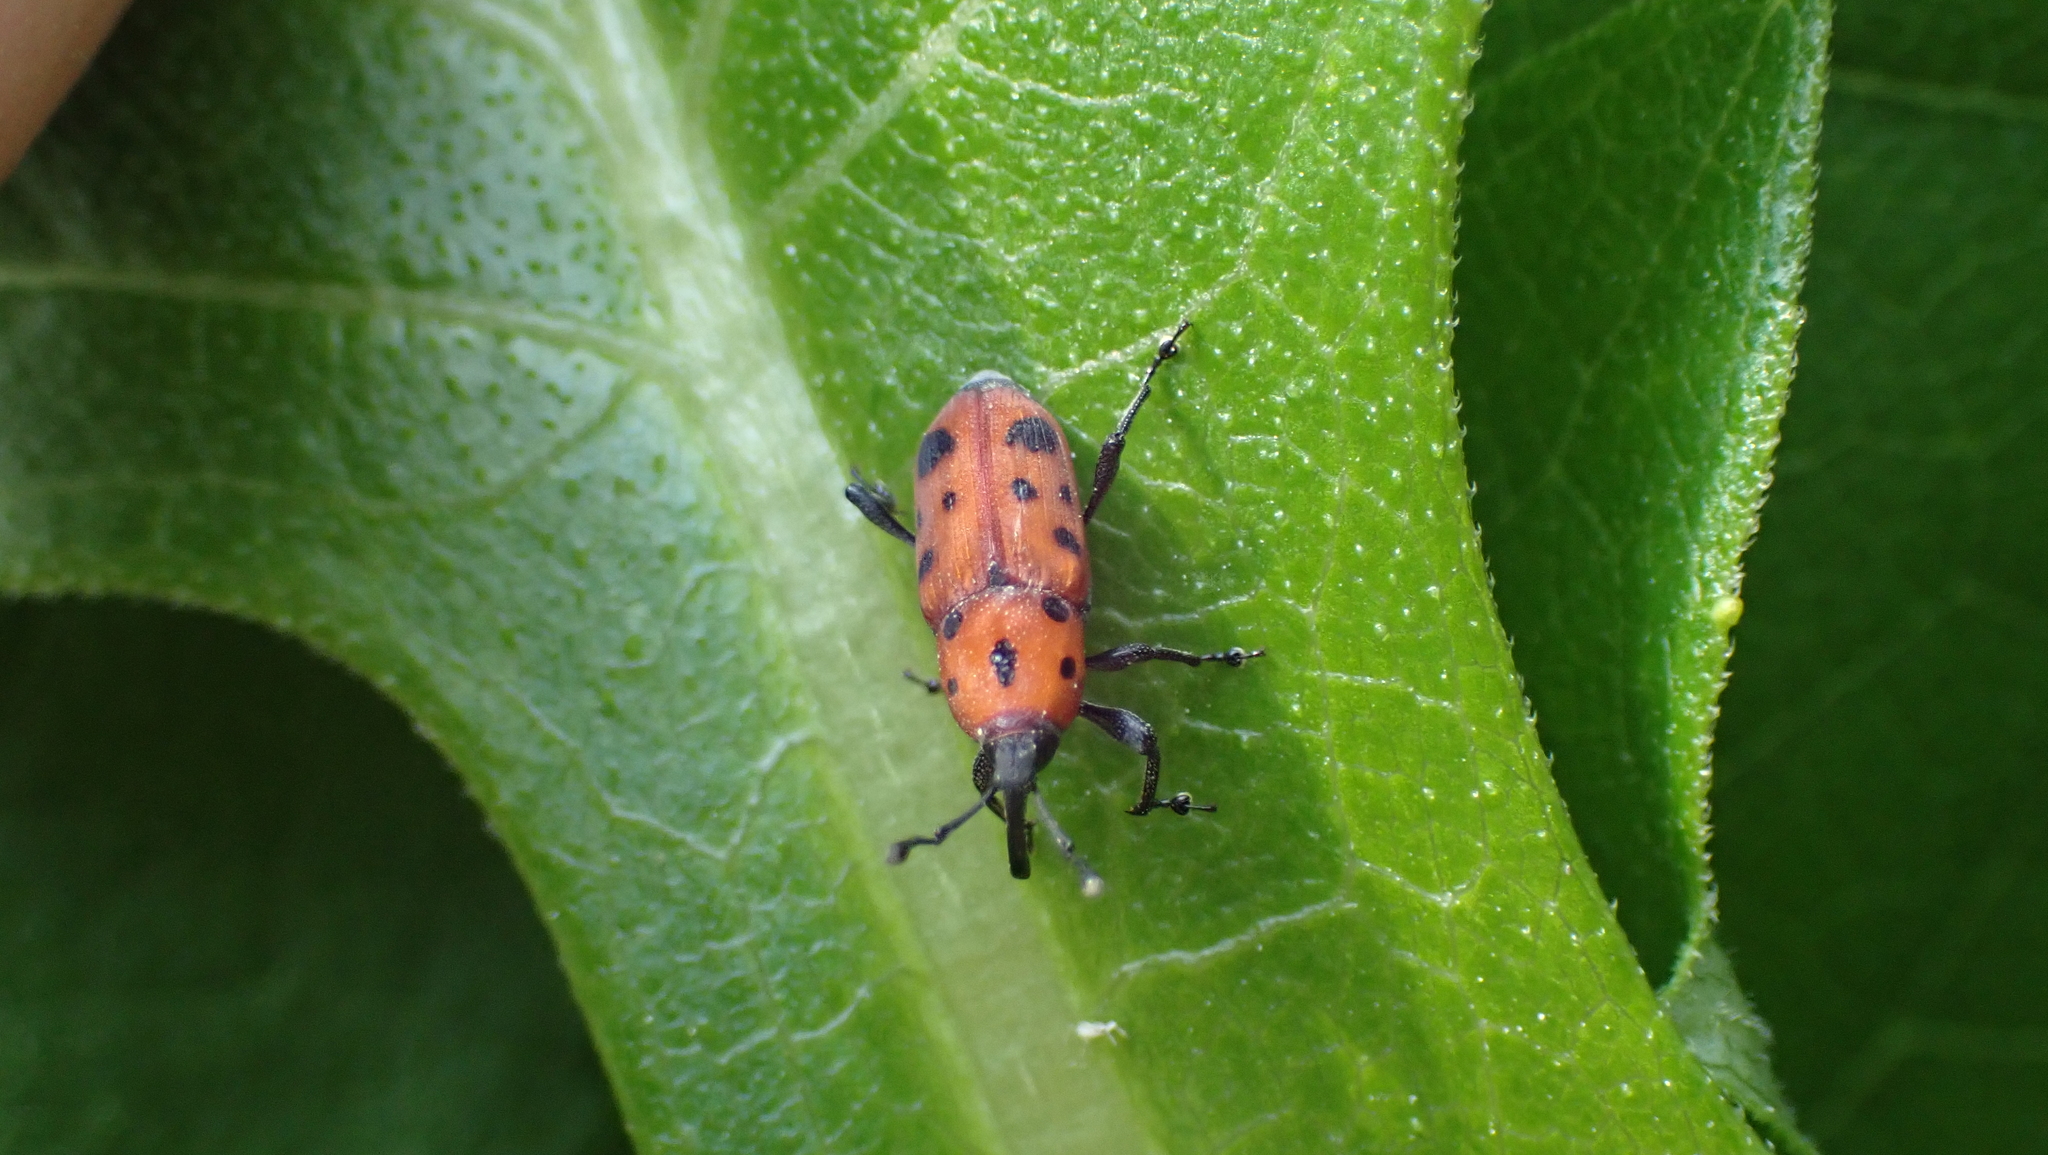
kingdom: Animalia
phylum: Arthropoda
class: Insecta
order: Coleoptera
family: Dryophthoridae
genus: Rhodobaenus
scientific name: Rhodobaenus tredecimpunctatus
